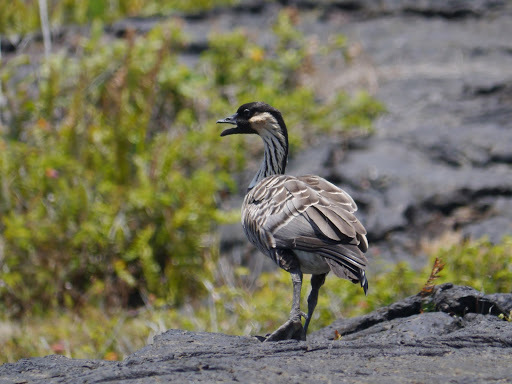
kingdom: Animalia
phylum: Chordata
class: Aves
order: Anseriformes
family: Anatidae
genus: Branta
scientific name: Branta sandvicensis
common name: Nene
